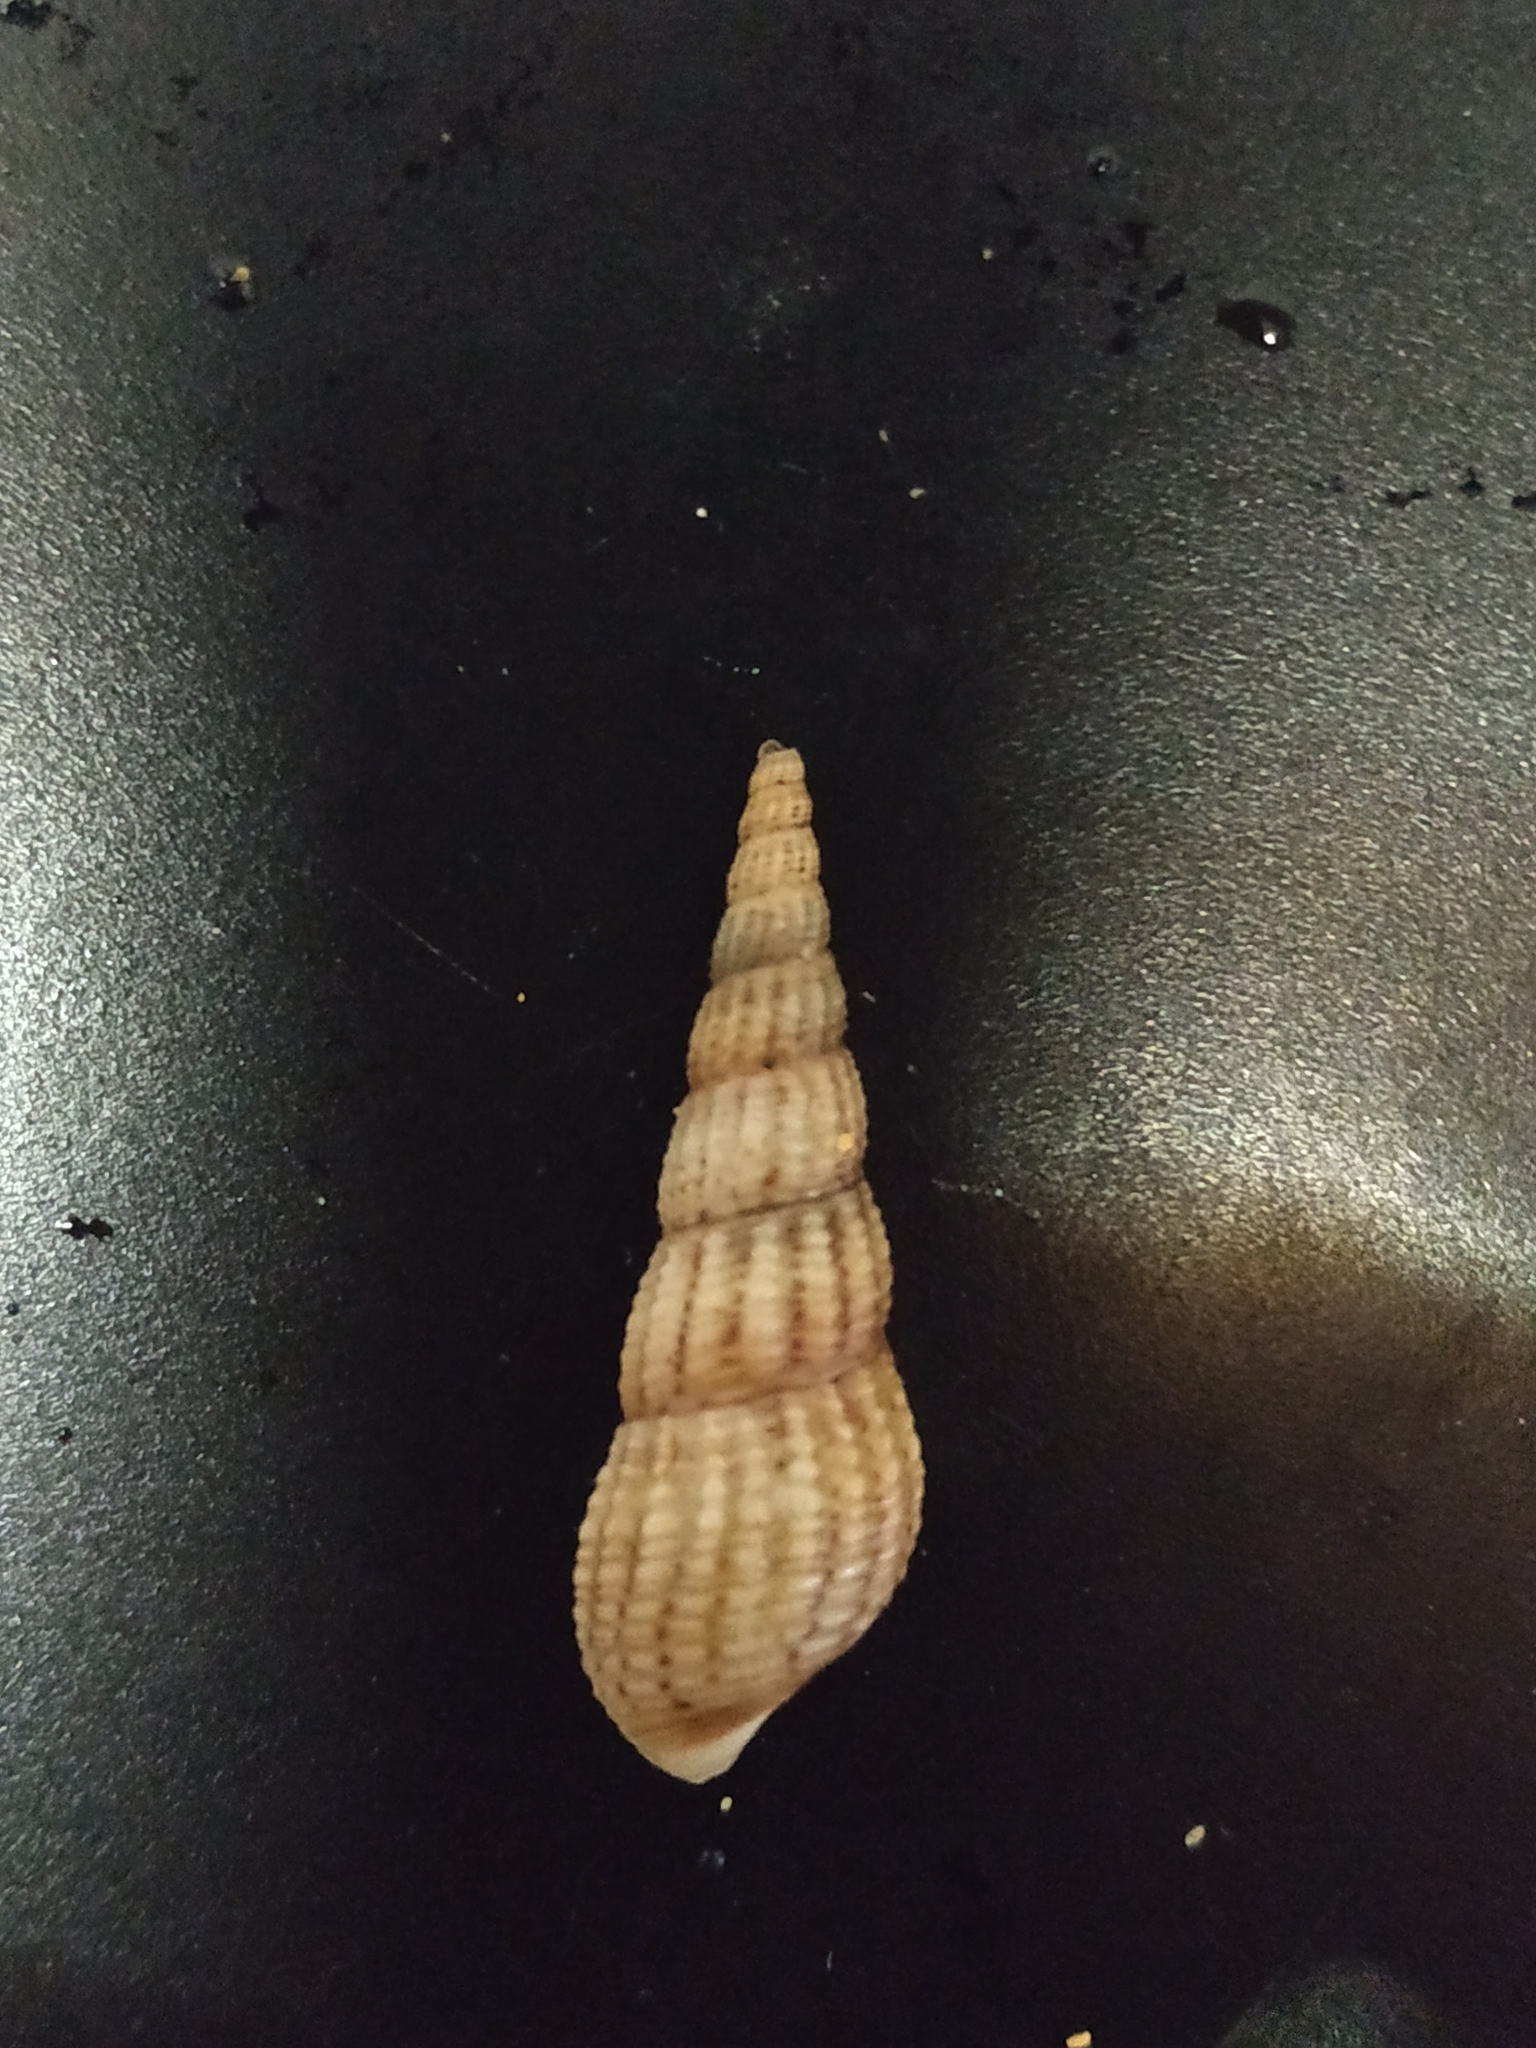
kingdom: Animalia
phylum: Mollusca
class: Gastropoda
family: Thiaridae
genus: Melanoides
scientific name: Melanoides tuberculata
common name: Red-rim melania
